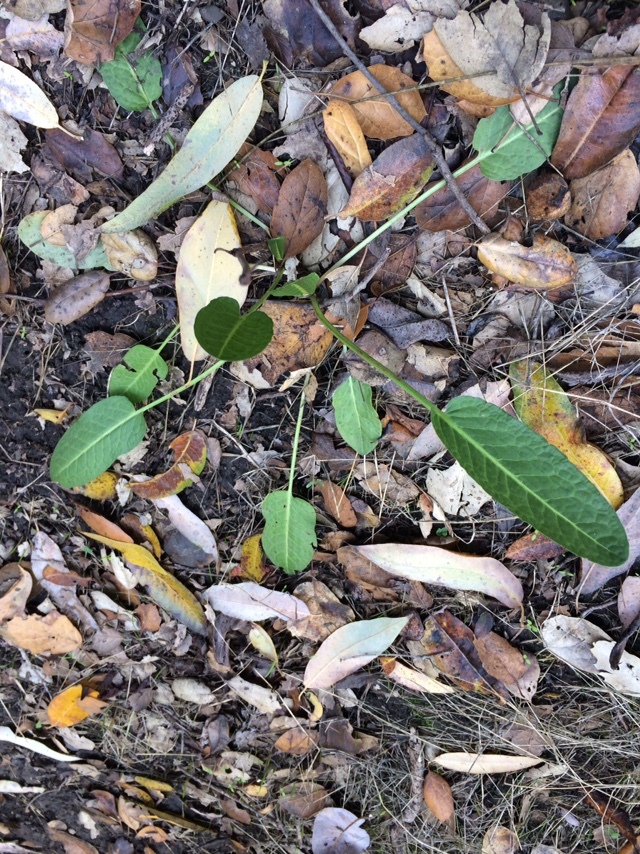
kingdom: Plantae
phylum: Tracheophyta
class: Magnoliopsida
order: Piperales
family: Saururaceae
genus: Anemopsis
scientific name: Anemopsis californica
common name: Apache-beads
